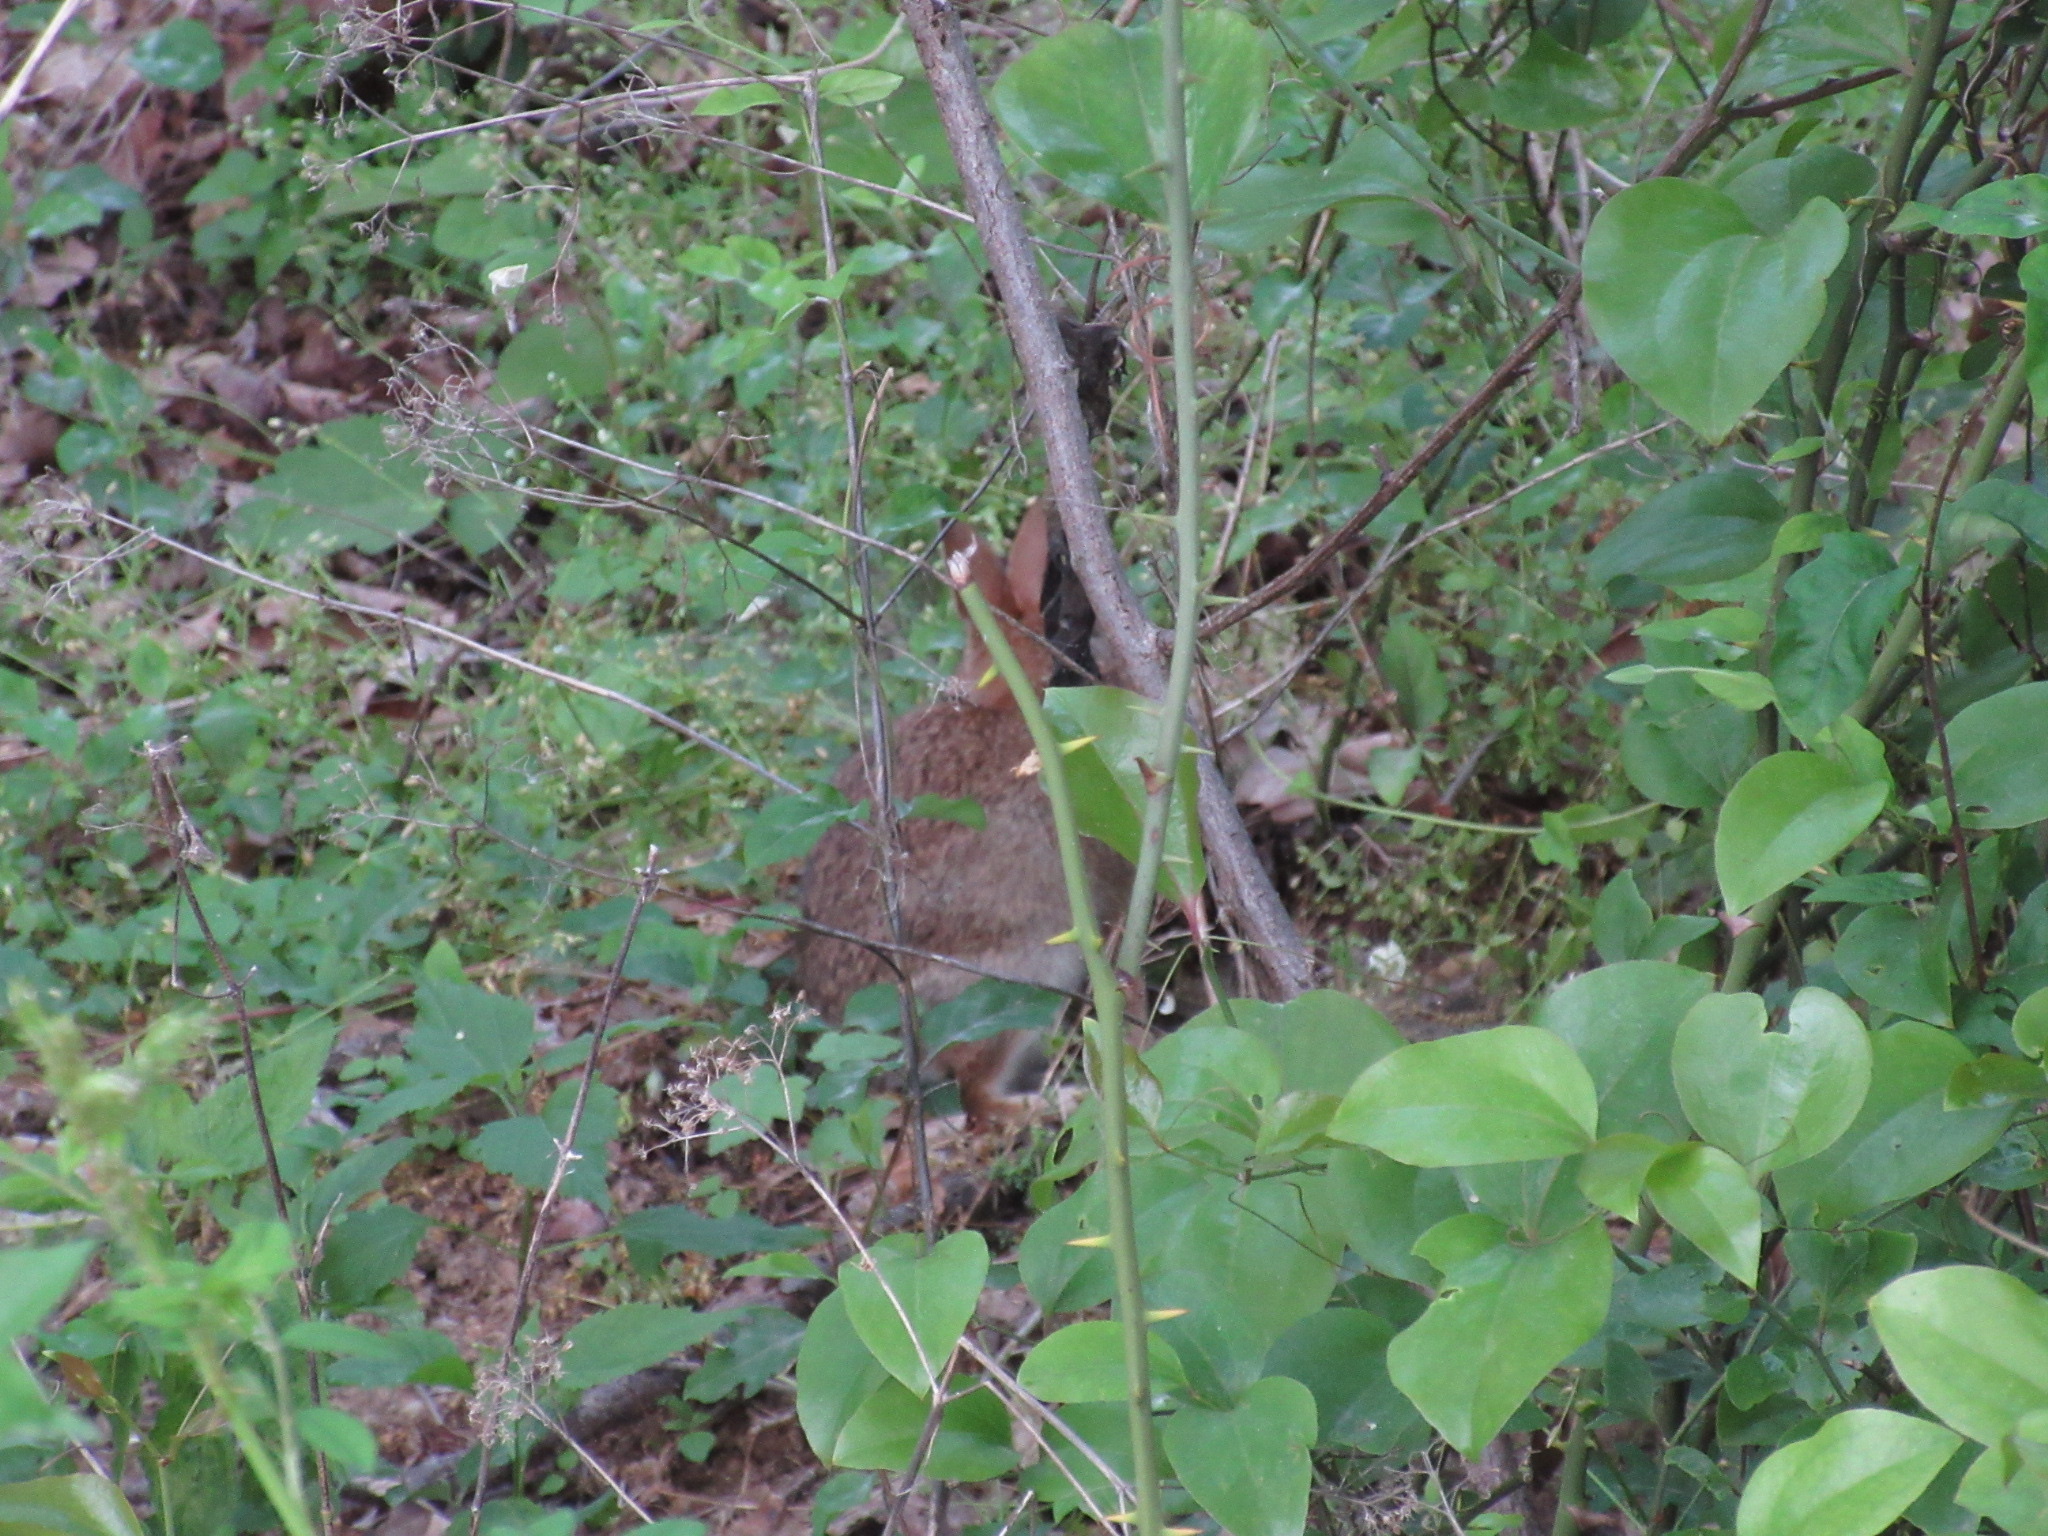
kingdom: Animalia
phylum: Chordata
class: Mammalia
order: Lagomorpha
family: Leporidae
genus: Sylvilagus
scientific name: Sylvilagus floridanus
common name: Eastern cottontail
